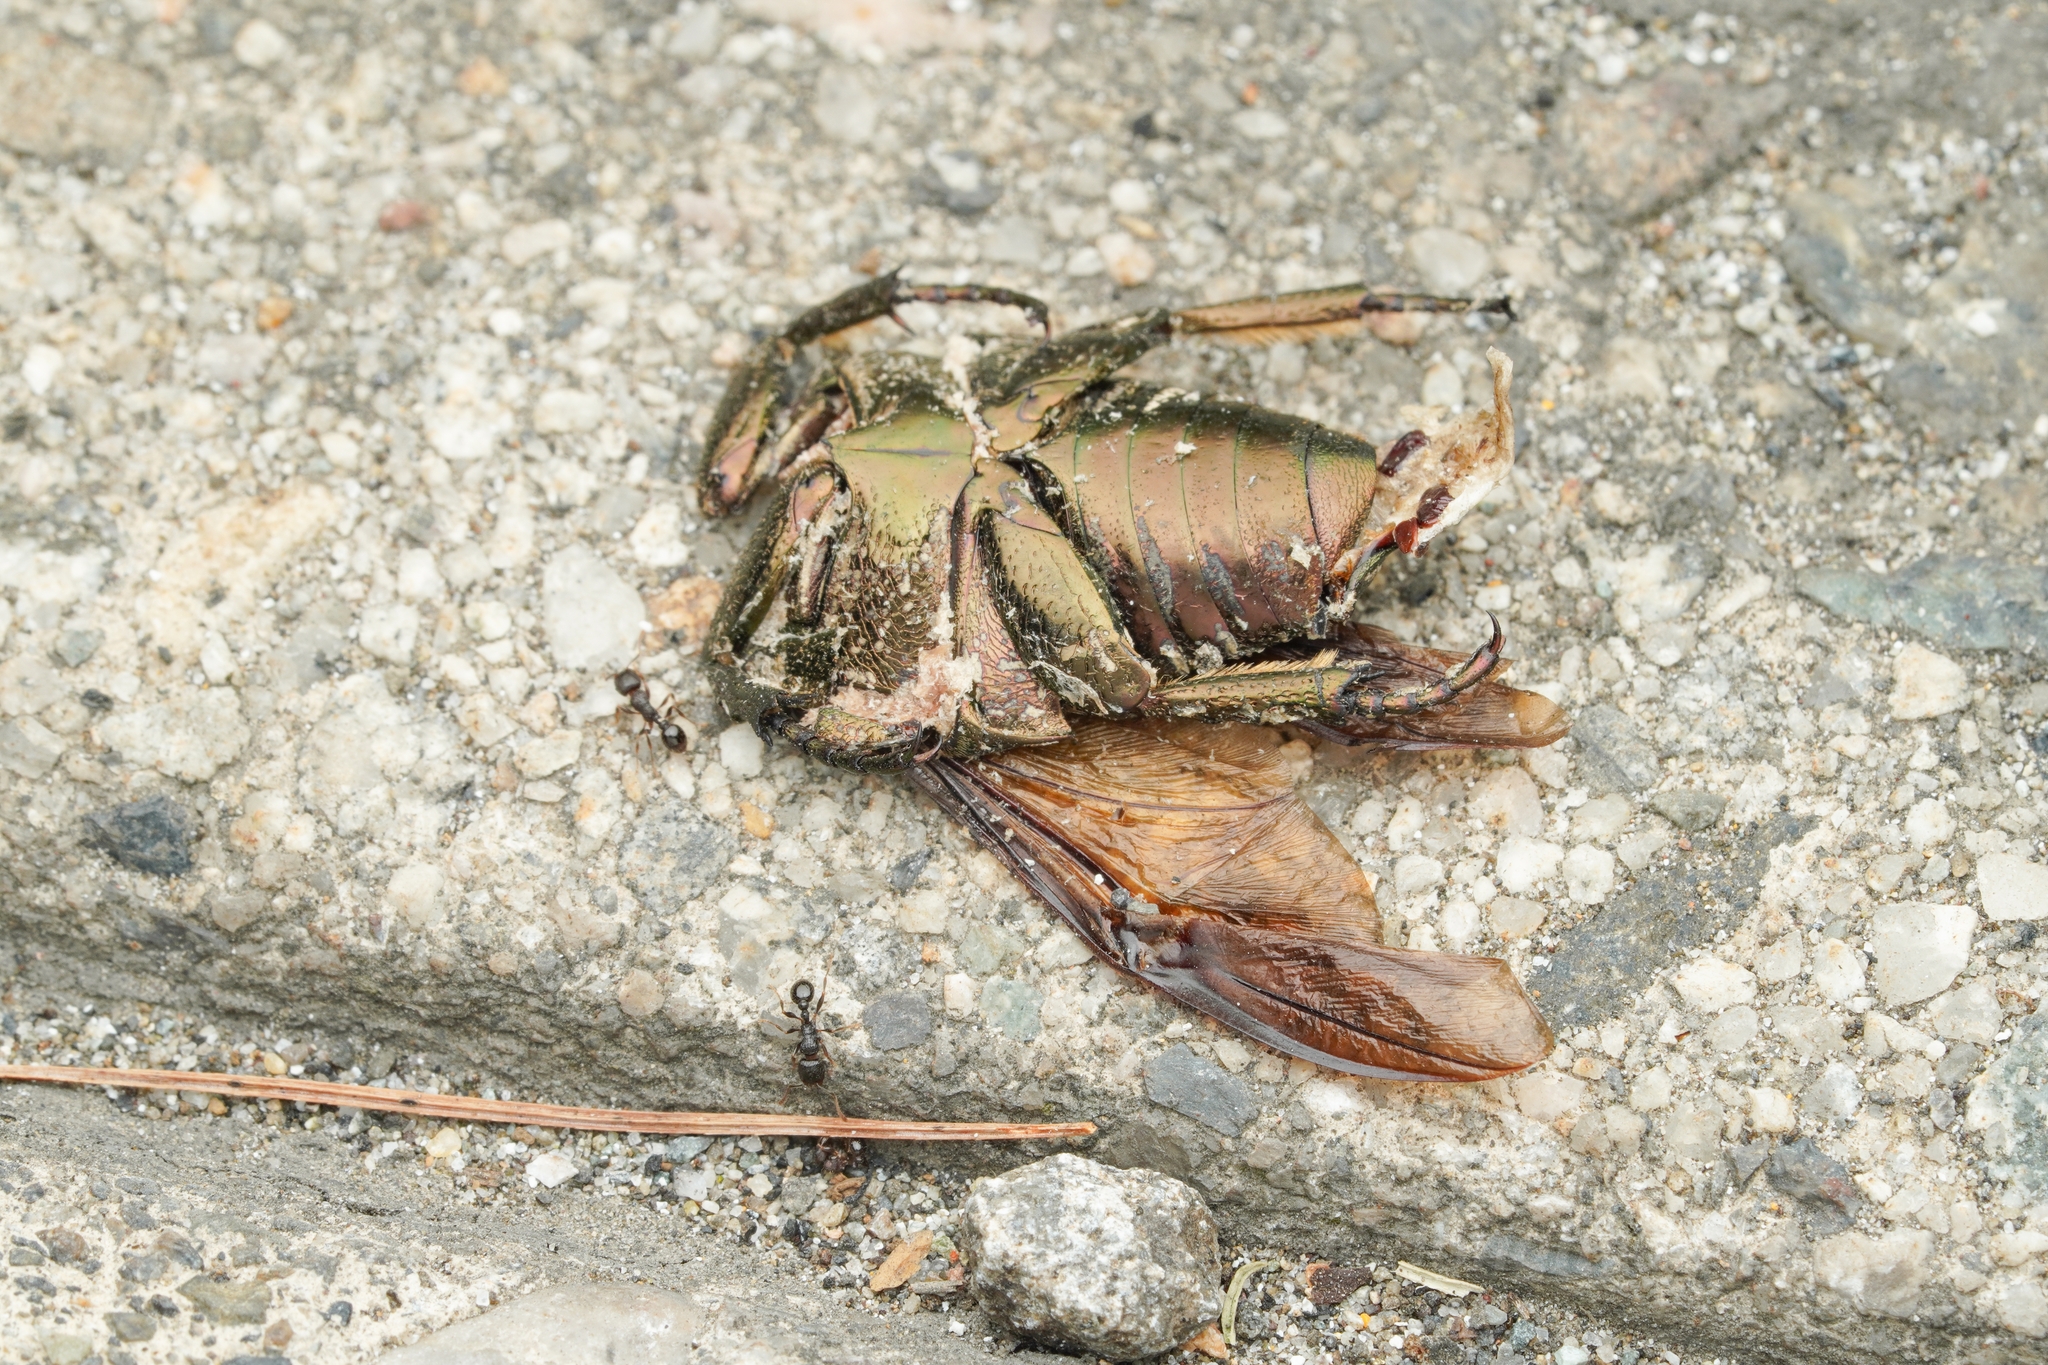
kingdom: Animalia
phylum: Arthropoda
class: Insecta
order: Hymenoptera
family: Formicidae
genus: Tetramorium
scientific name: Tetramorium tsushimae
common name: Ant
